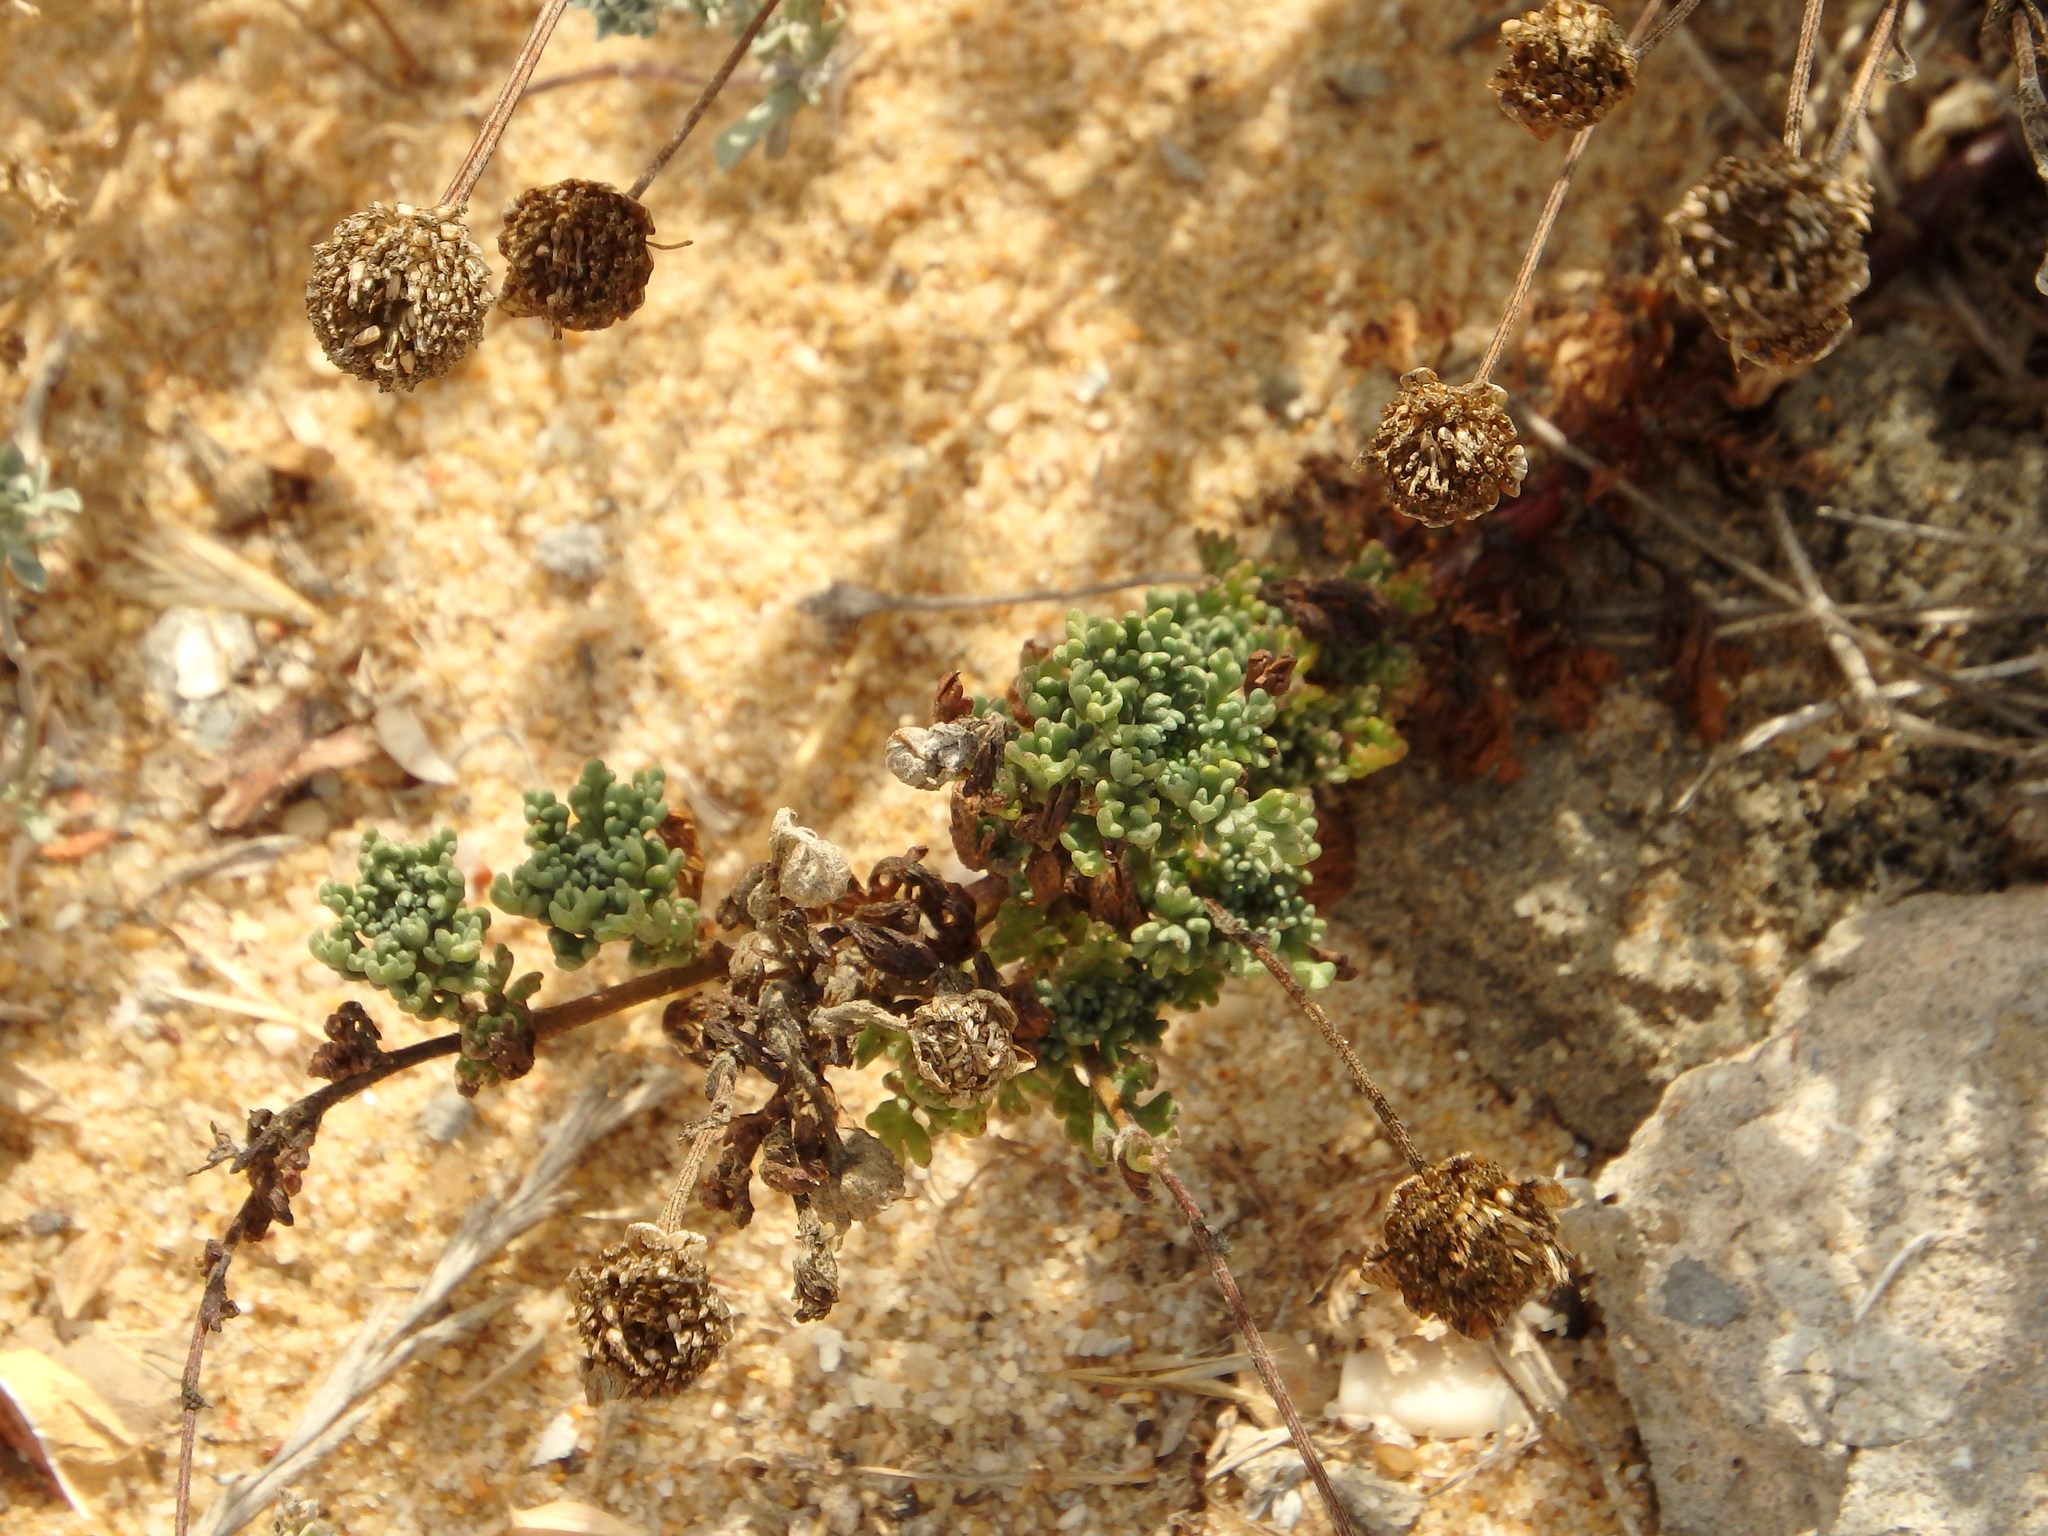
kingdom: Plantae
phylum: Tracheophyta
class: Magnoliopsida
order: Asterales
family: Asteraceae
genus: Anthemis
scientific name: Anthemis maritima
